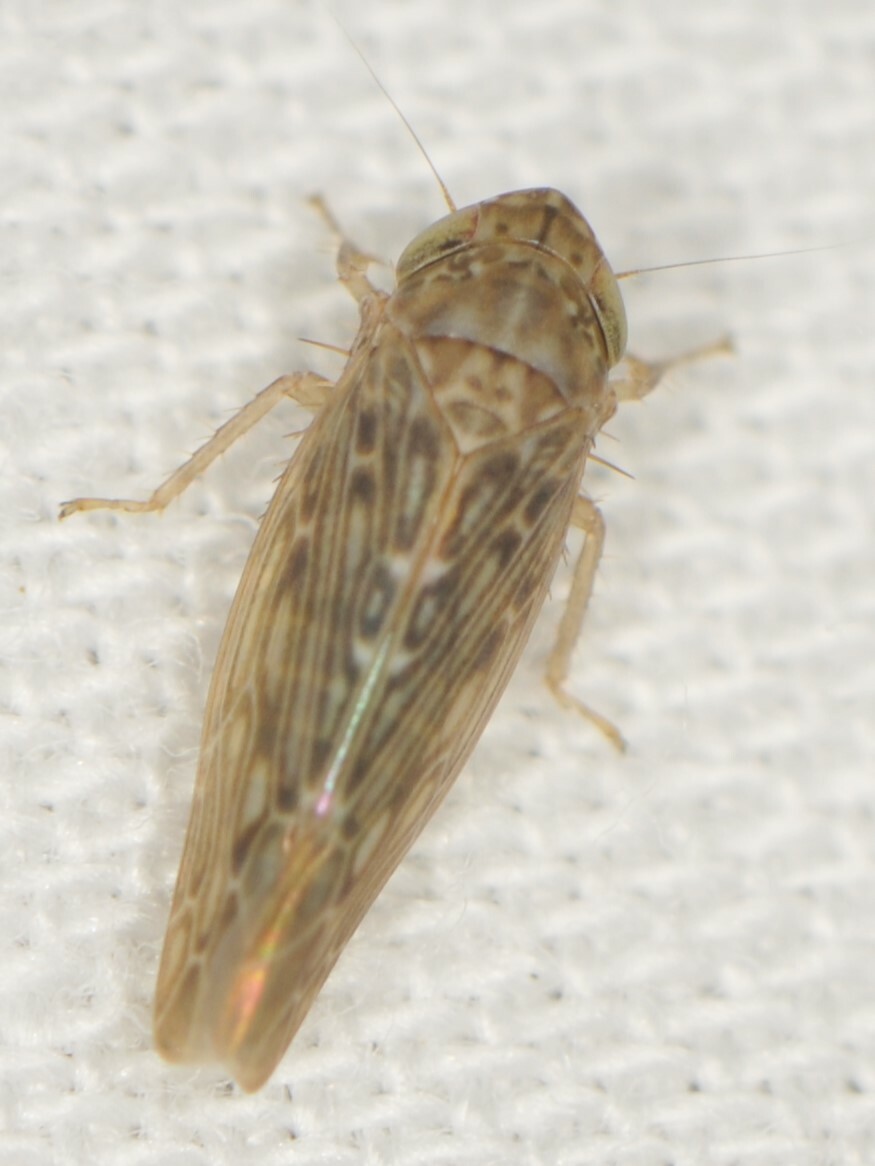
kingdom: Animalia
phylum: Arthropoda
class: Insecta
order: Hemiptera
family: Cicadellidae
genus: Doleranus
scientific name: Doleranus
